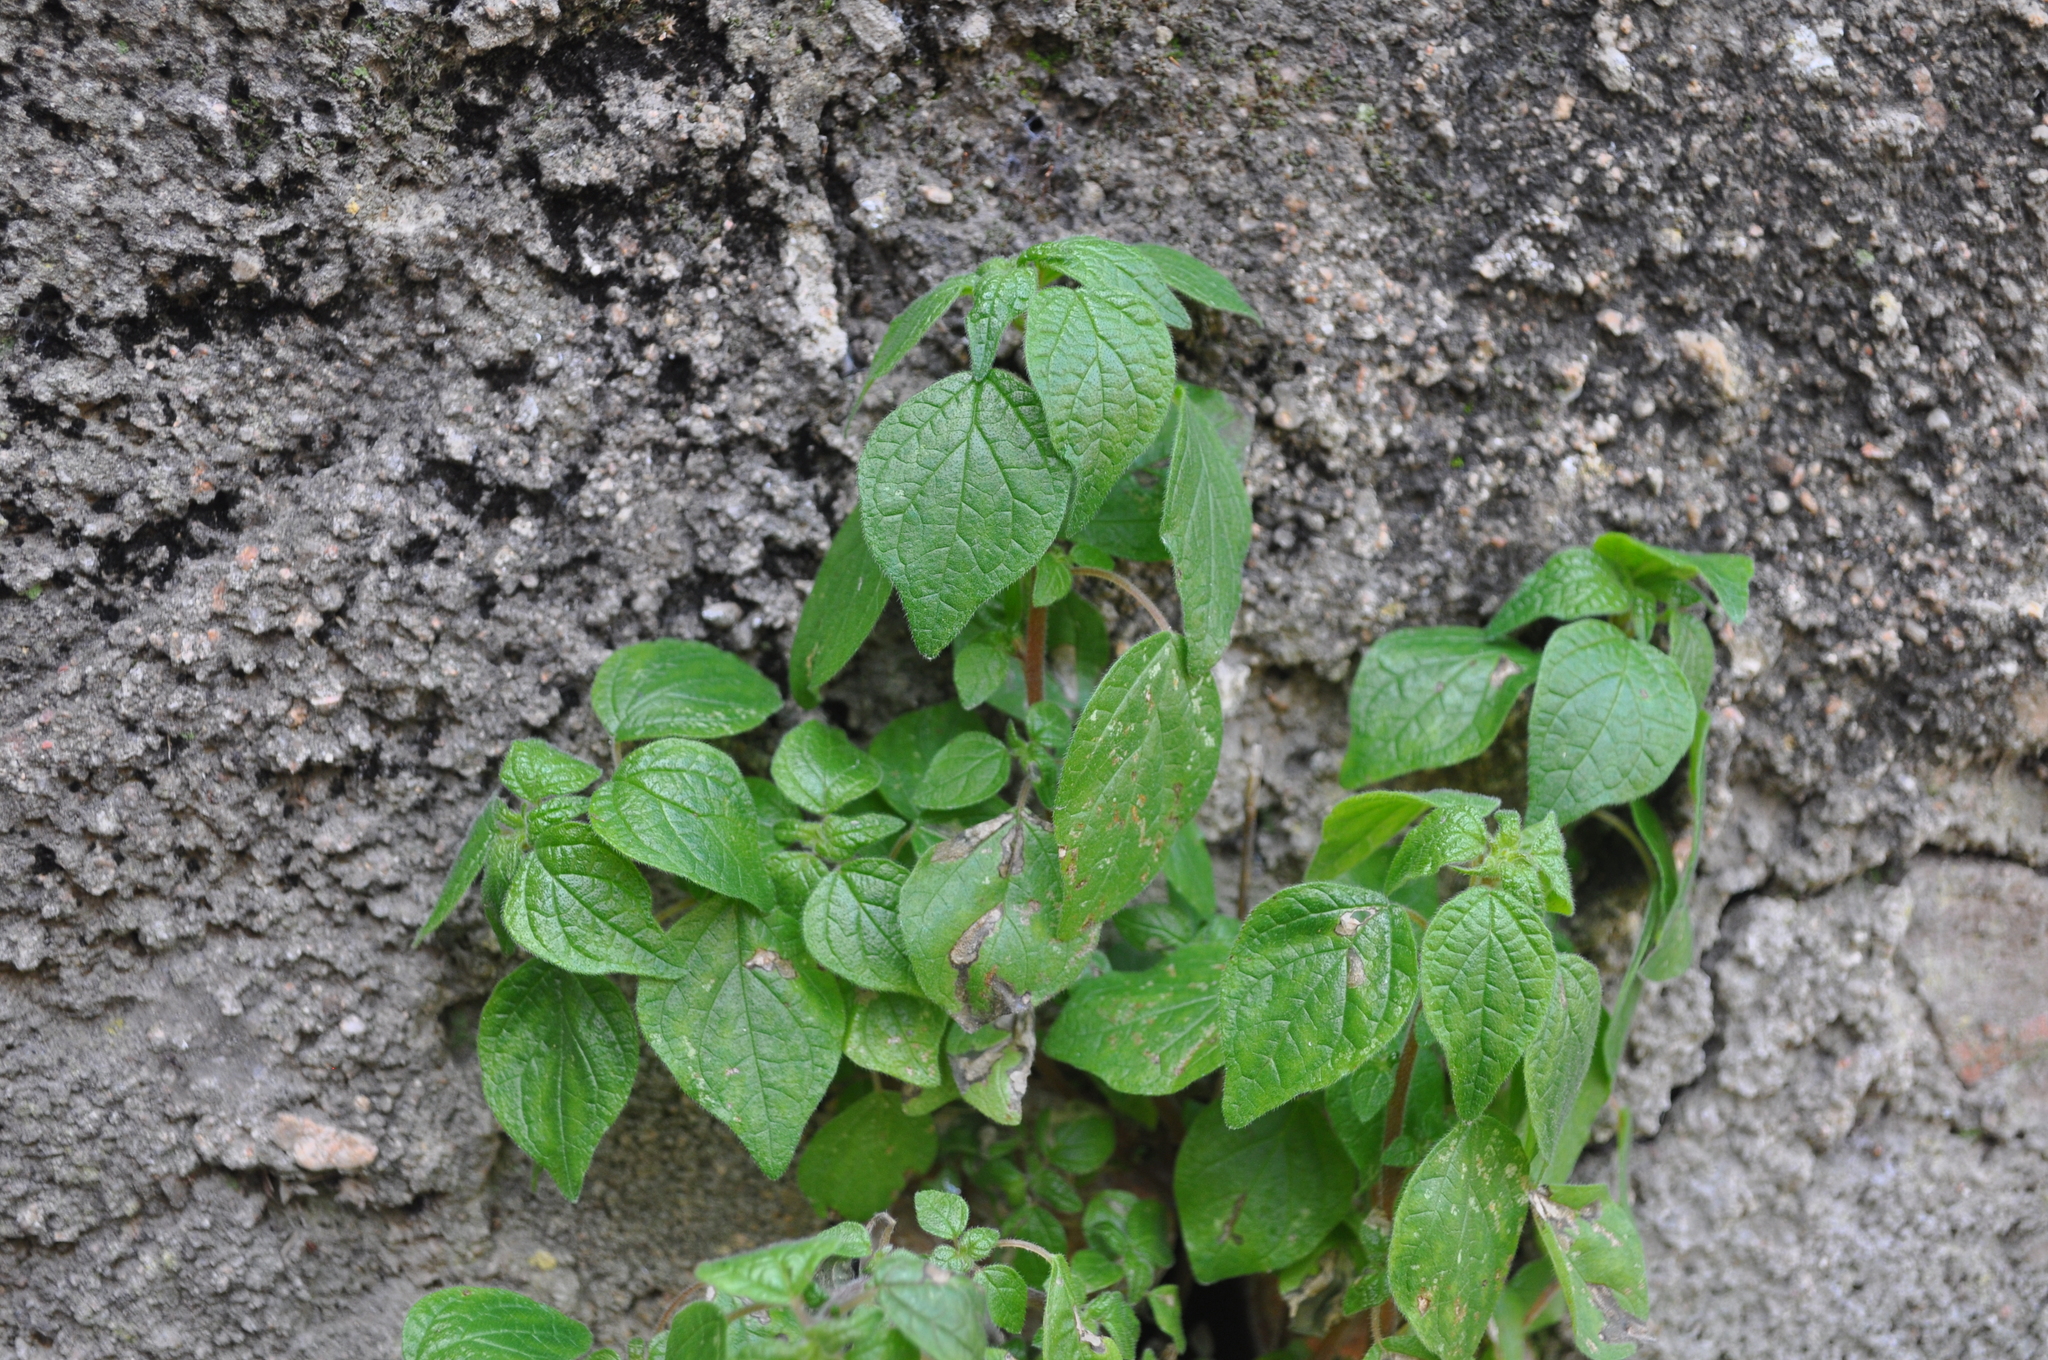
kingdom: Plantae
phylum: Tracheophyta
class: Magnoliopsida
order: Rosales
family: Urticaceae
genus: Parietaria
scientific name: Parietaria judaica
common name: Pellitory-of-the-wall
